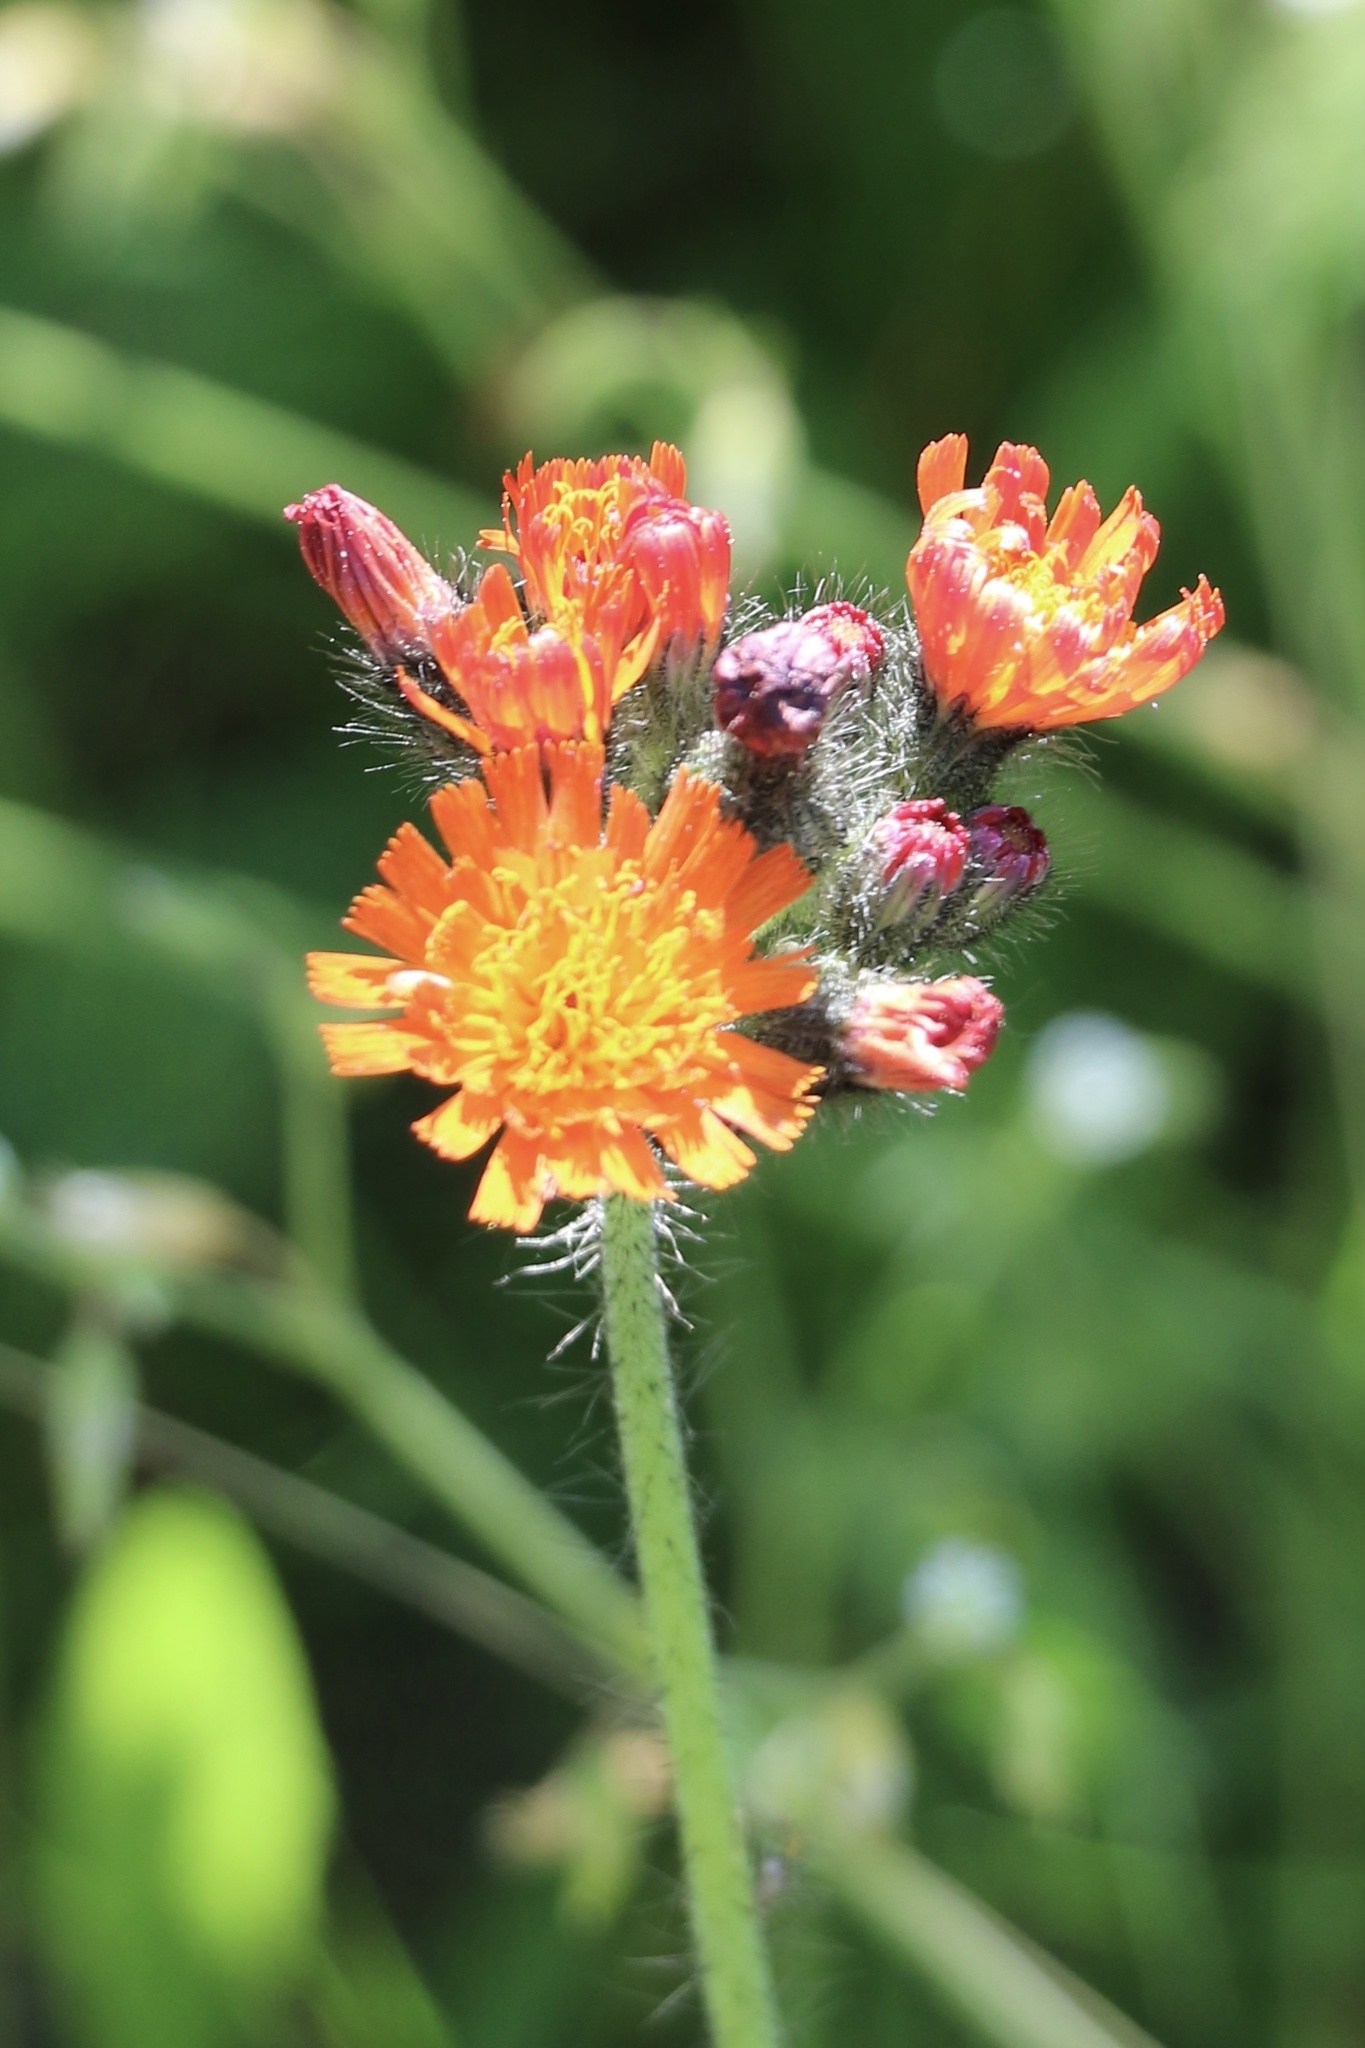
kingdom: Plantae
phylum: Tracheophyta
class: Magnoliopsida
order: Asterales
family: Asteraceae
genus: Pilosella
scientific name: Pilosella aurantiaca
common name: Fox-and-cubs
